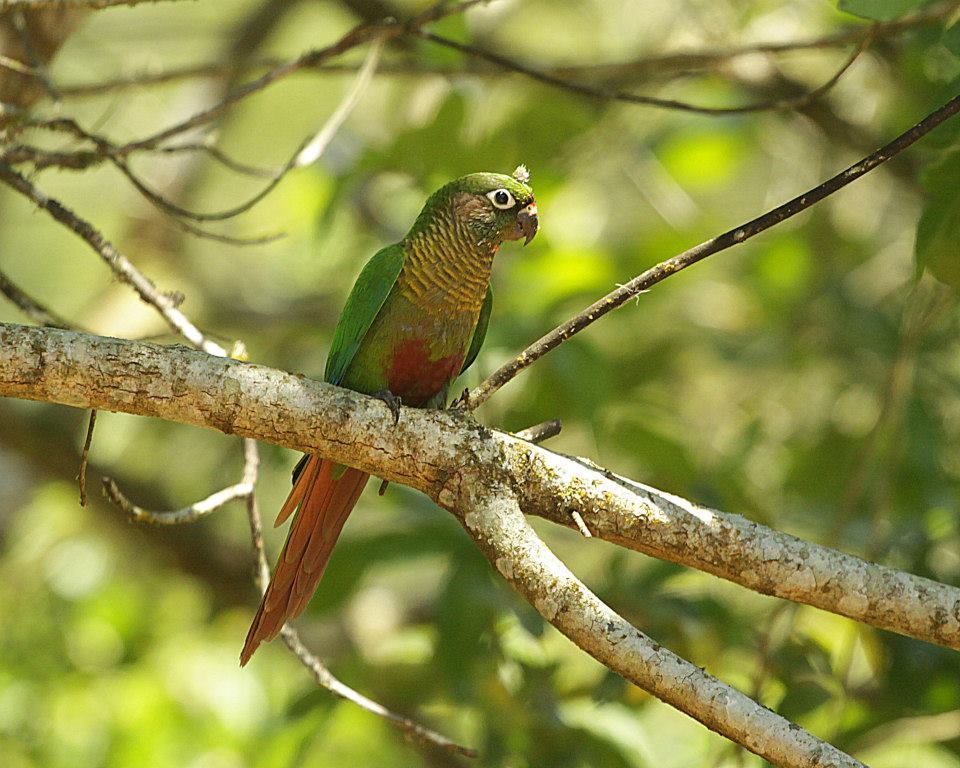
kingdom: Animalia
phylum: Chordata
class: Aves
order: Psittaciformes
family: Psittacidae
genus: Pyrrhura
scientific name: Pyrrhura frontalis
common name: Maroon-bellied parakeet
